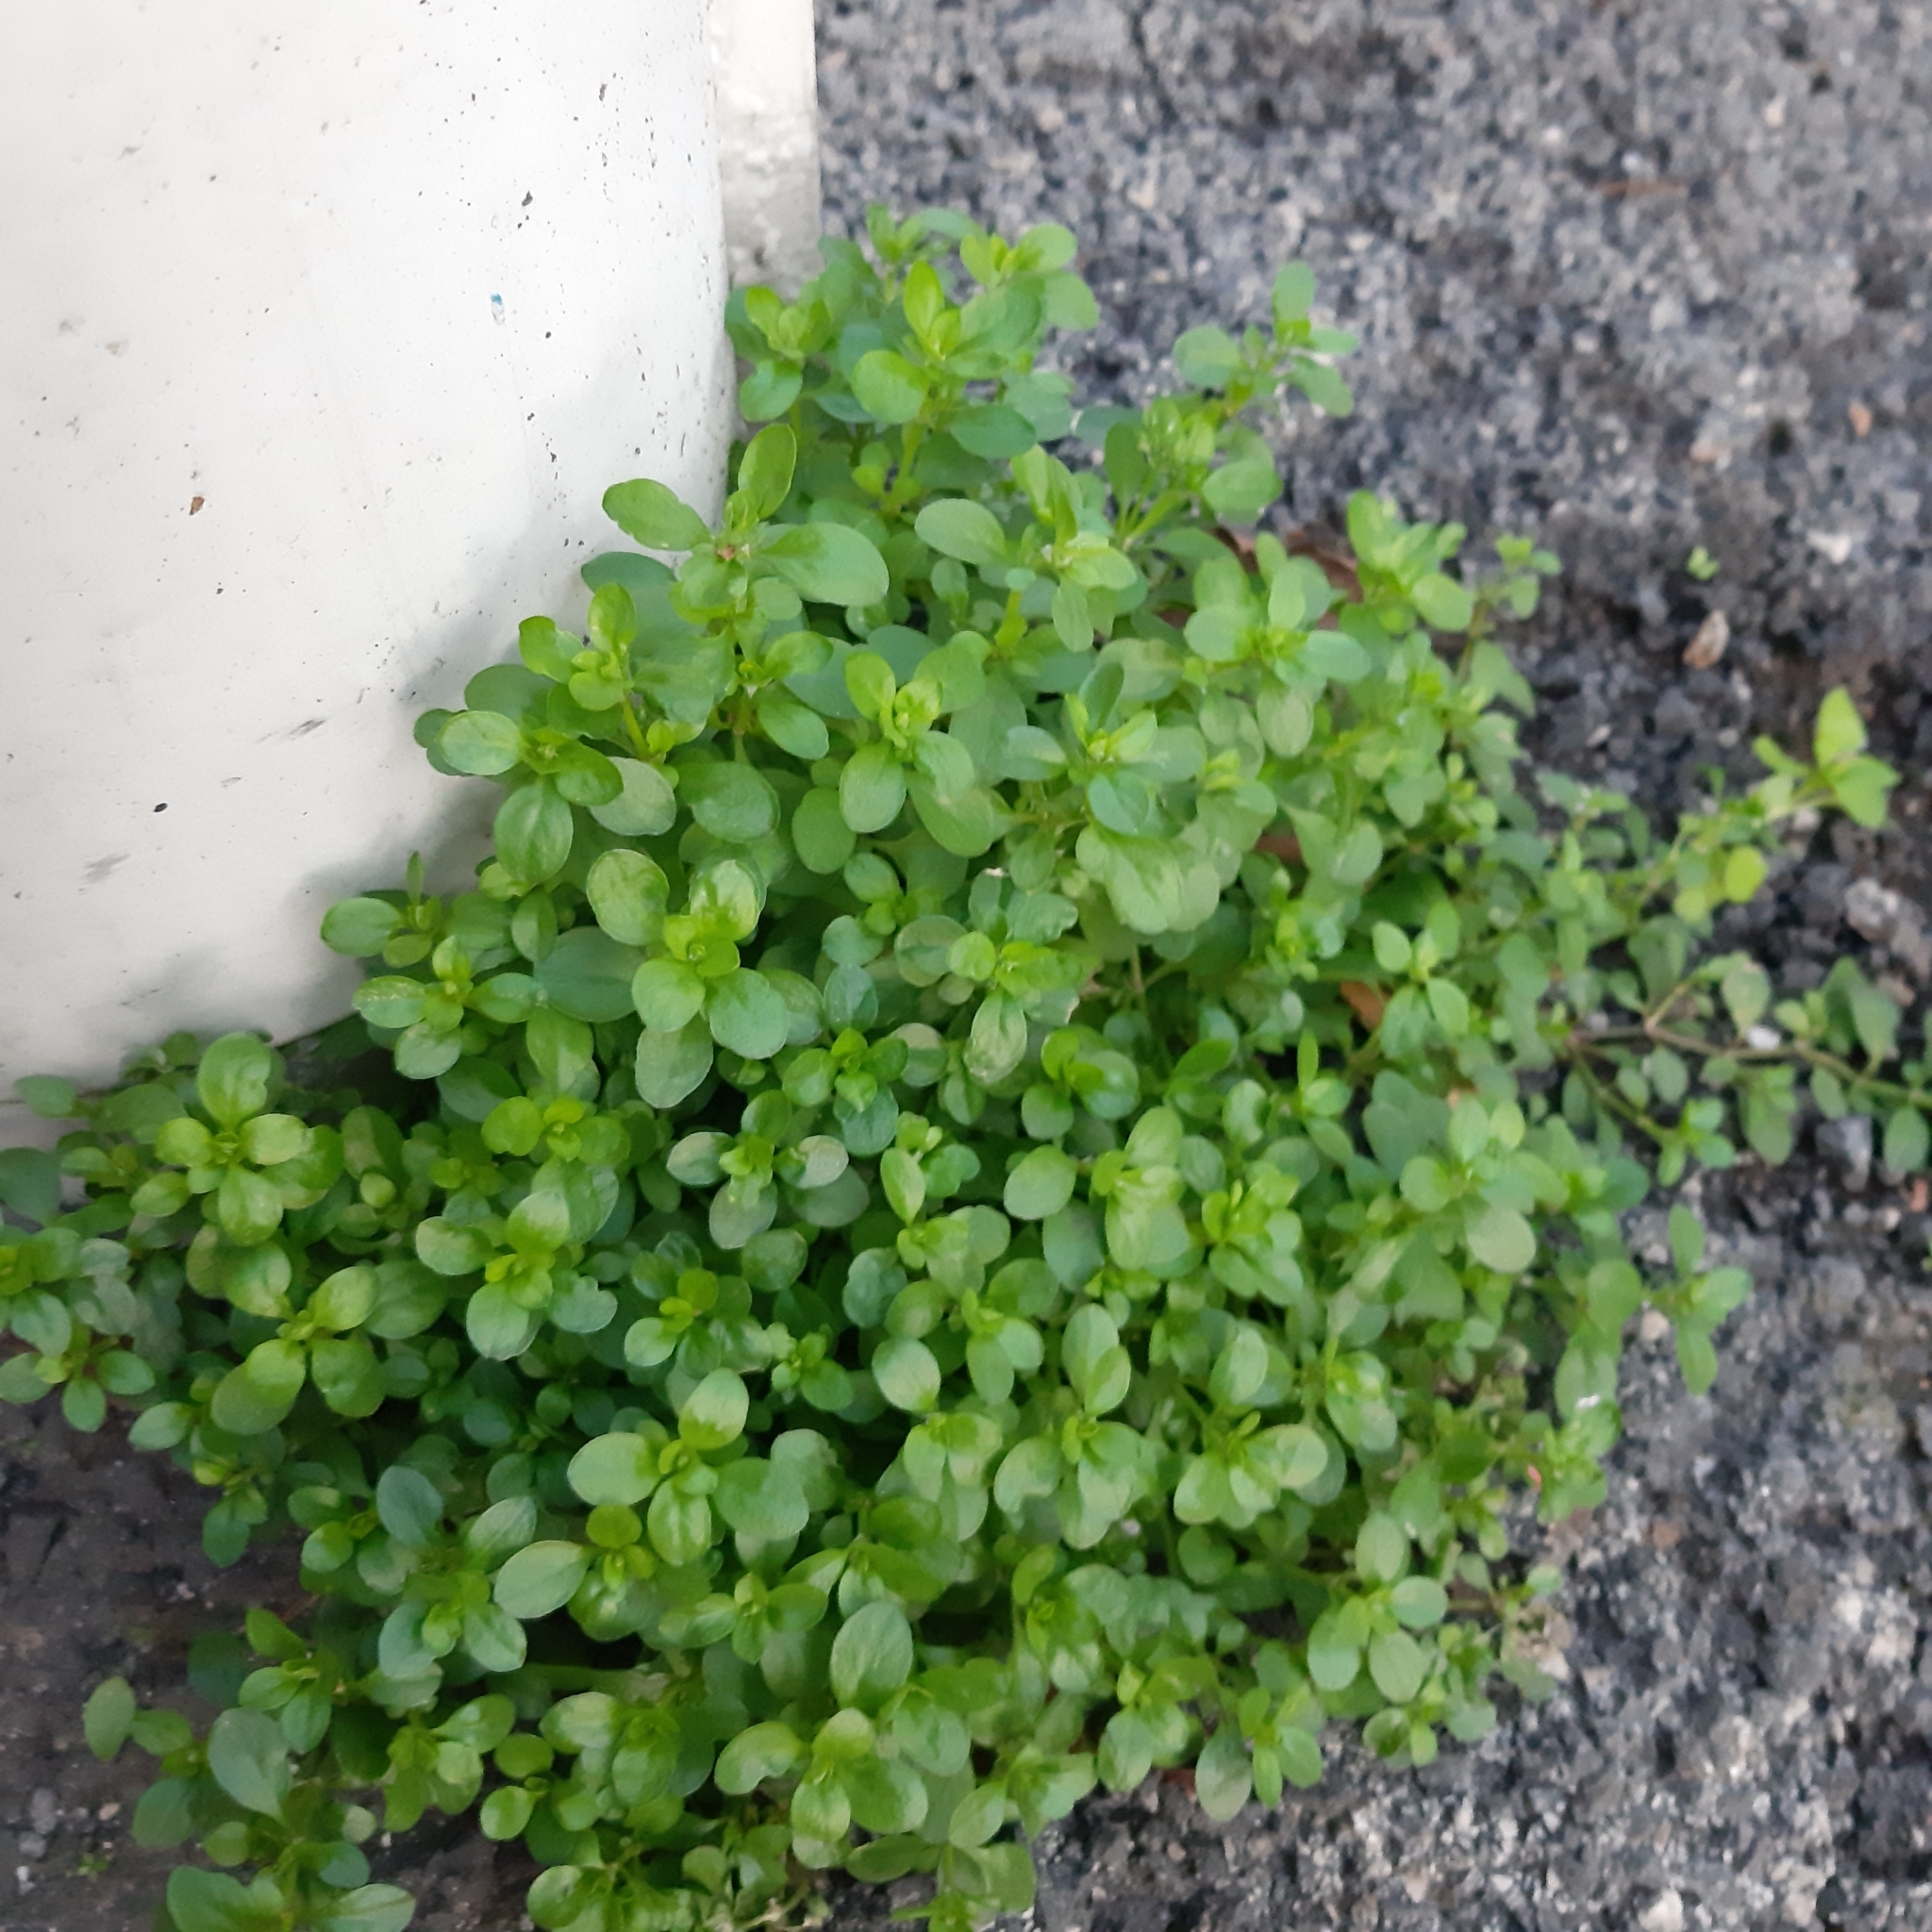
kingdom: Plantae
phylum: Tracheophyta
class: Magnoliopsida
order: Caryophyllales
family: Caryophyllaceae
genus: Stellaria
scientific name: Stellaria media
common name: Common chickweed
